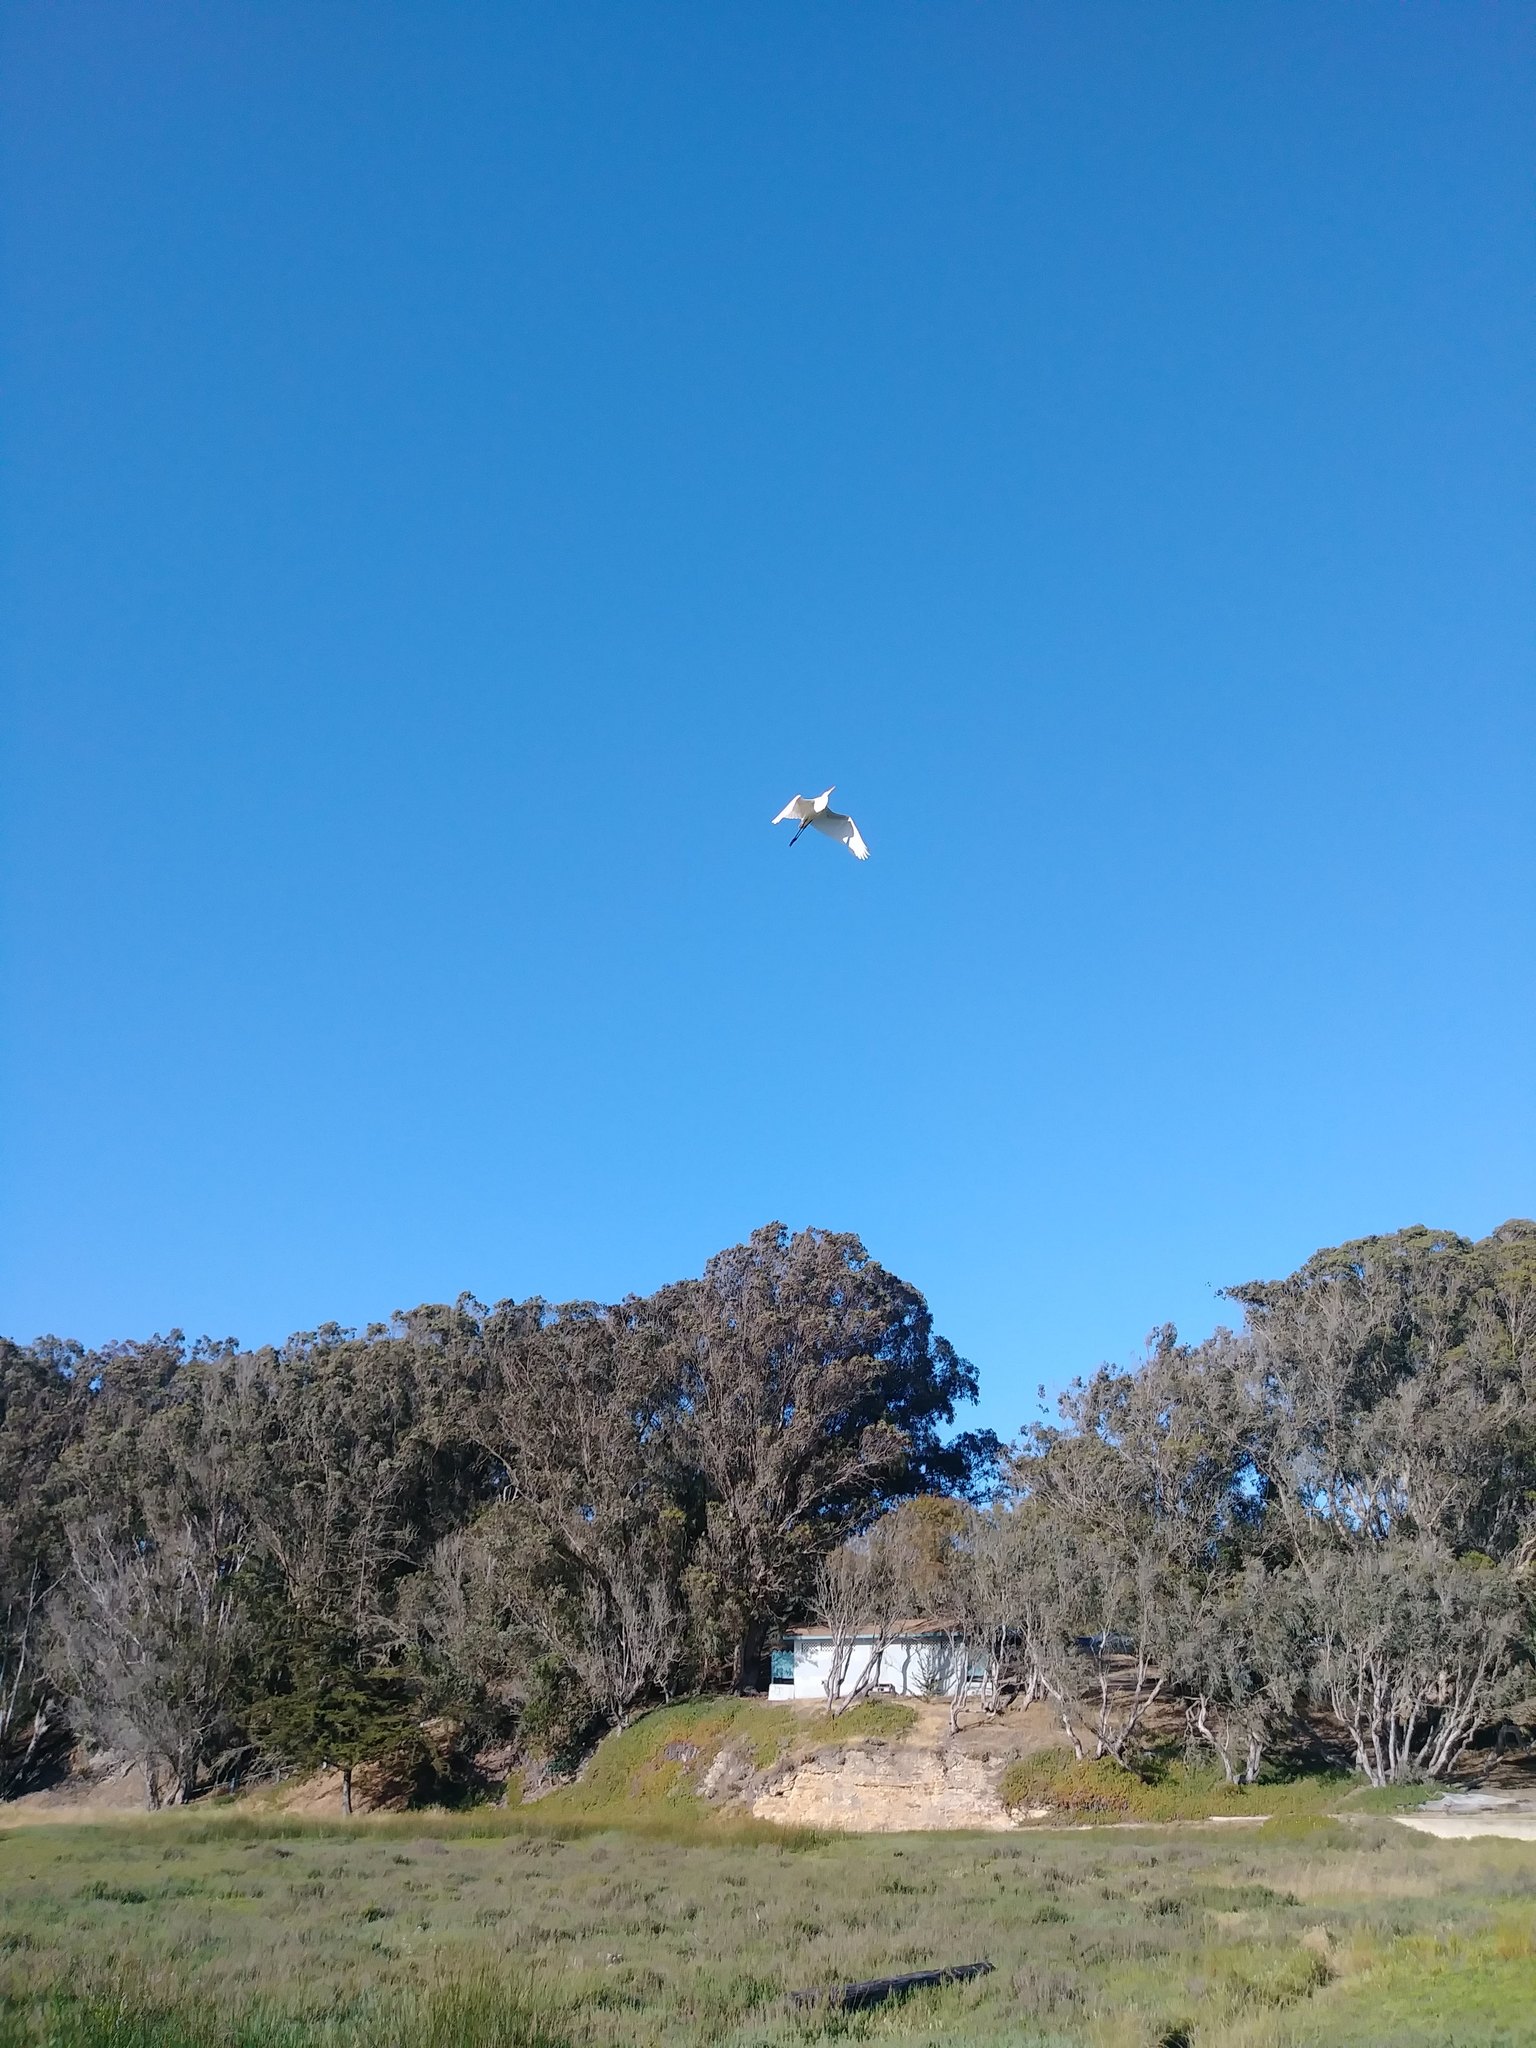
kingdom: Animalia
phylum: Chordata
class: Aves
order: Pelecaniformes
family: Ardeidae
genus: Ardea
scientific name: Ardea alba
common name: Great egret
